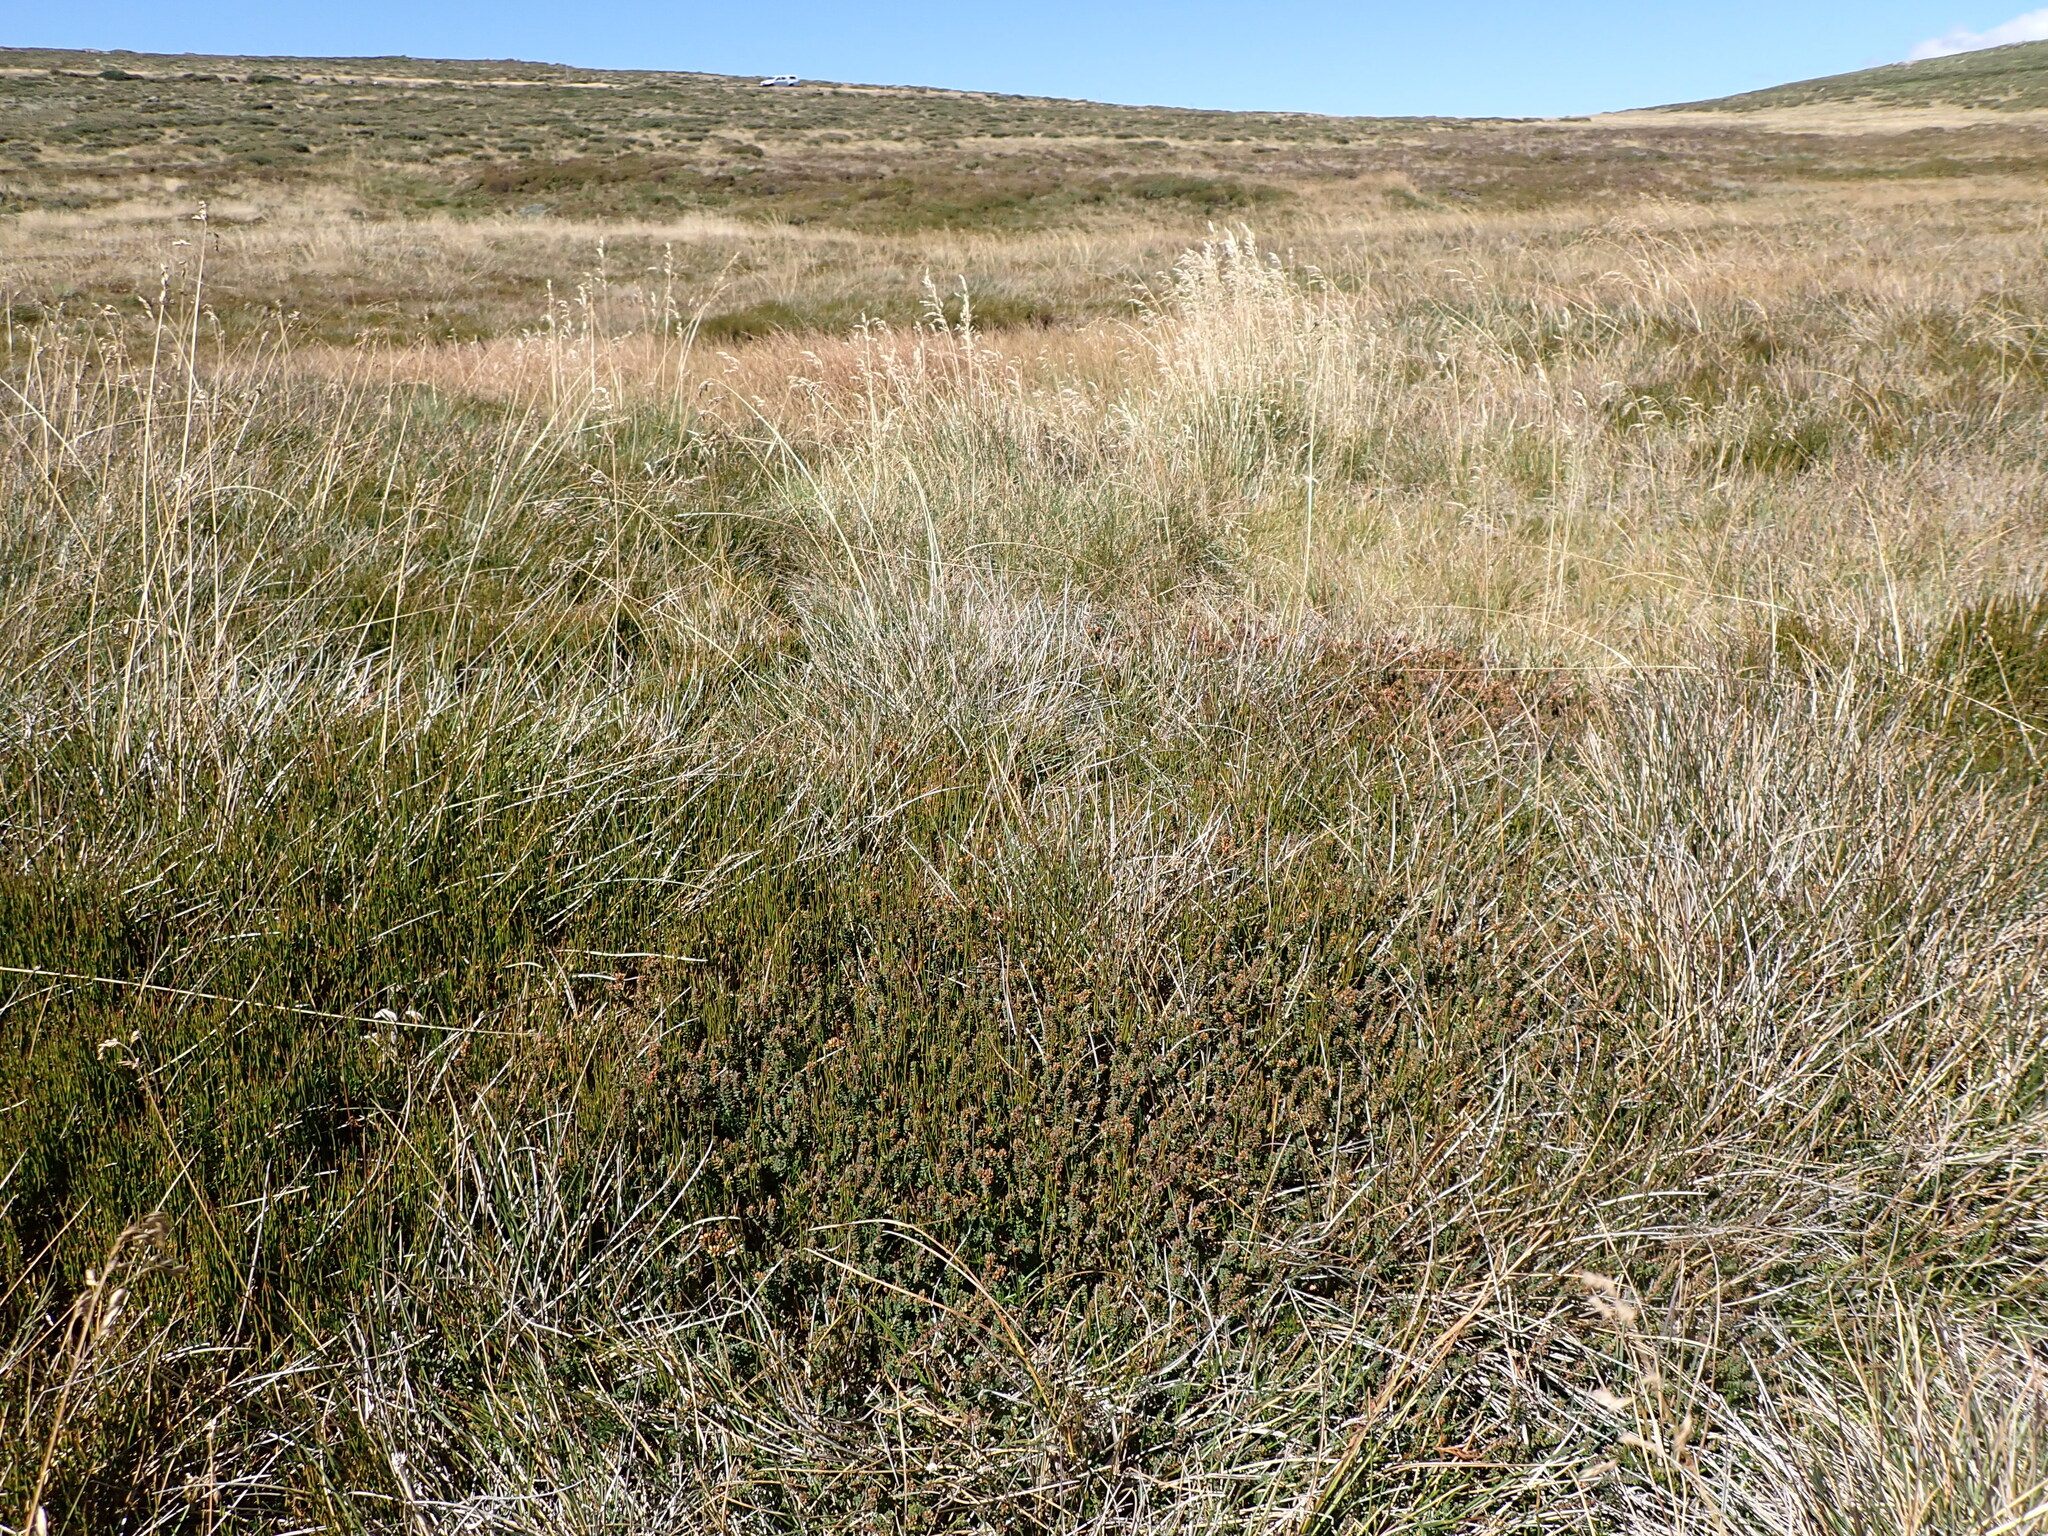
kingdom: Plantae
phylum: Tracheophyta
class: Magnoliopsida
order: Ericales
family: Ericaceae
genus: Epacris
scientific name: Epacris glacialis
